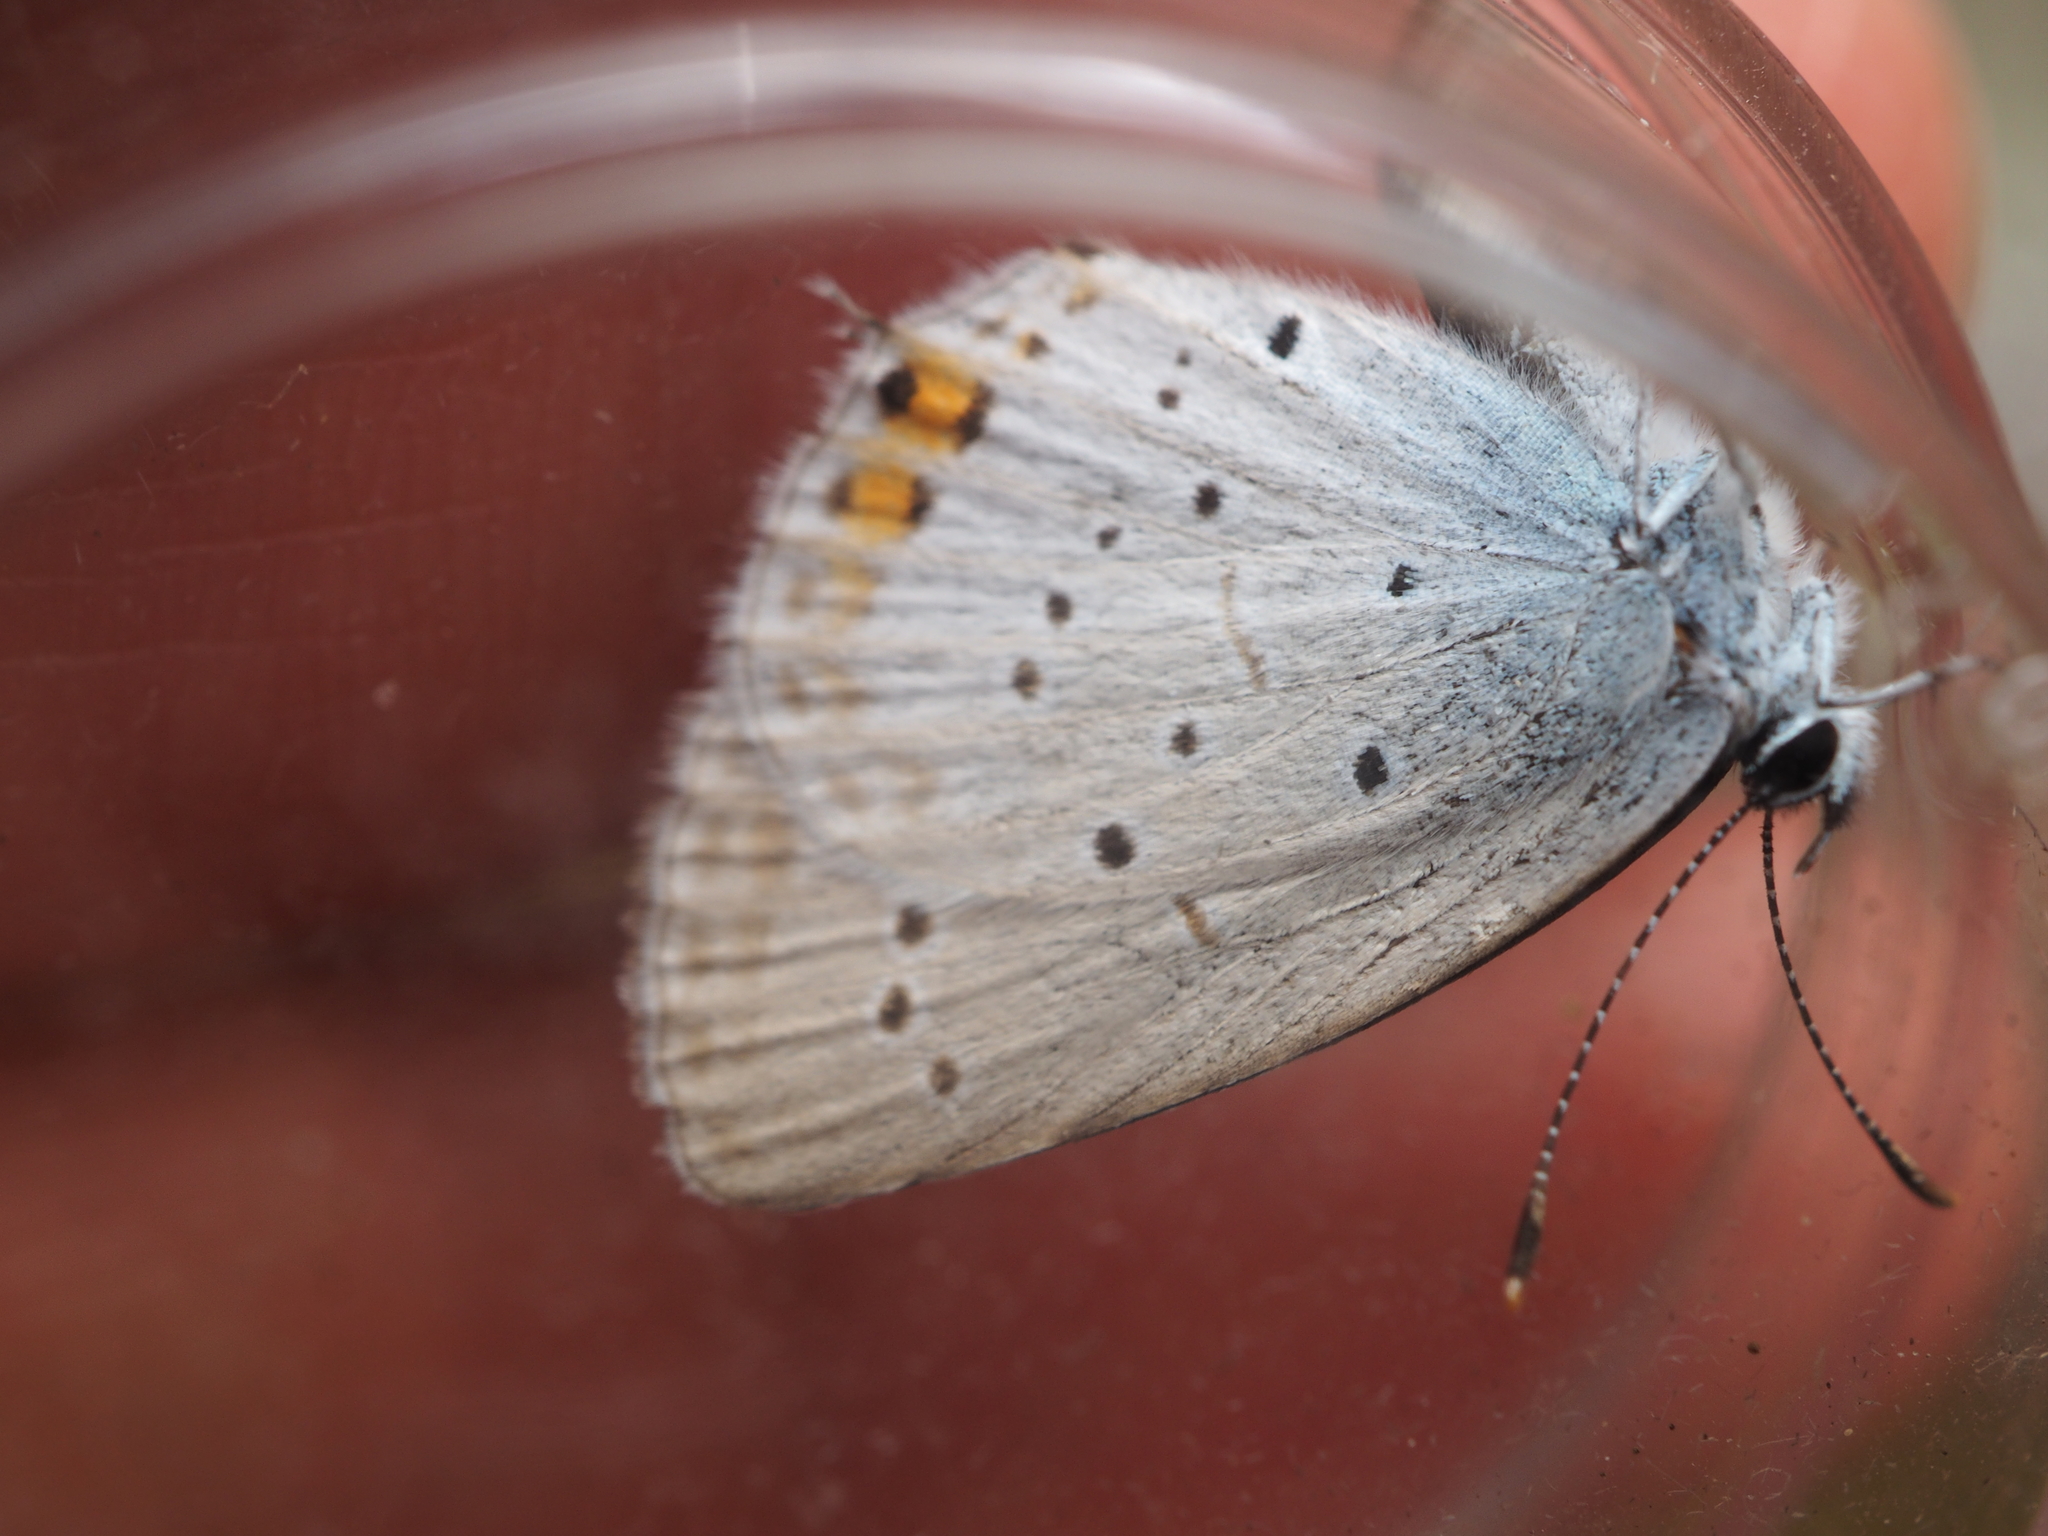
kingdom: Animalia
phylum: Arthropoda
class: Insecta
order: Lepidoptera
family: Lycaenidae
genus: Elkalyce
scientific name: Elkalyce argiades
